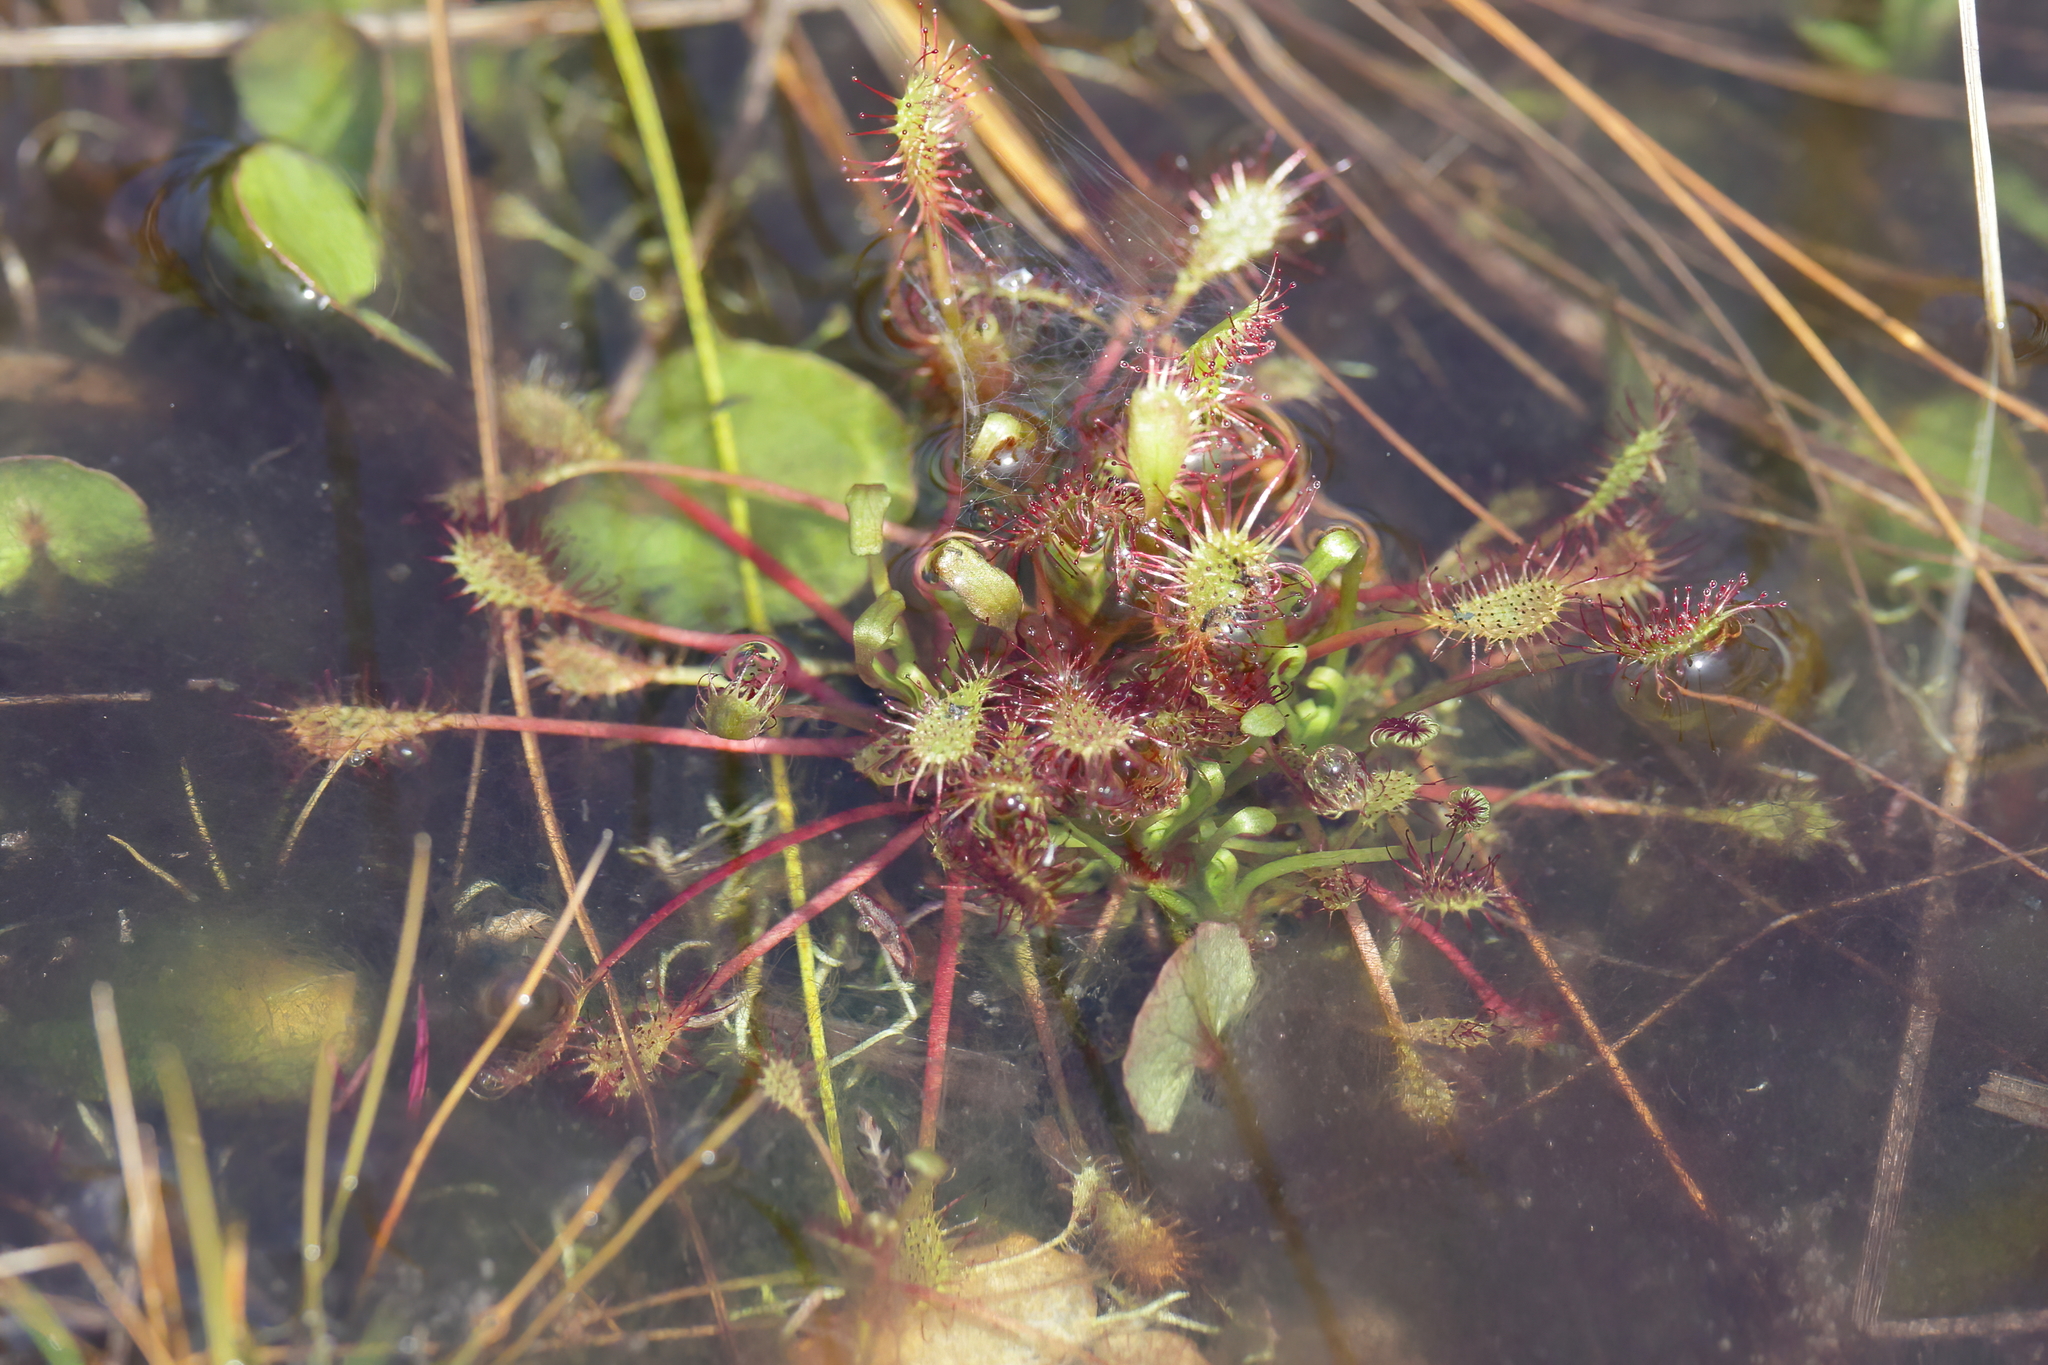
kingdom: Plantae
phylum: Tracheophyta
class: Magnoliopsida
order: Caryophyllales
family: Droseraceae
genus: Drosera
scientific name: Drosera intermedia
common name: Oblong-leaved sundew
